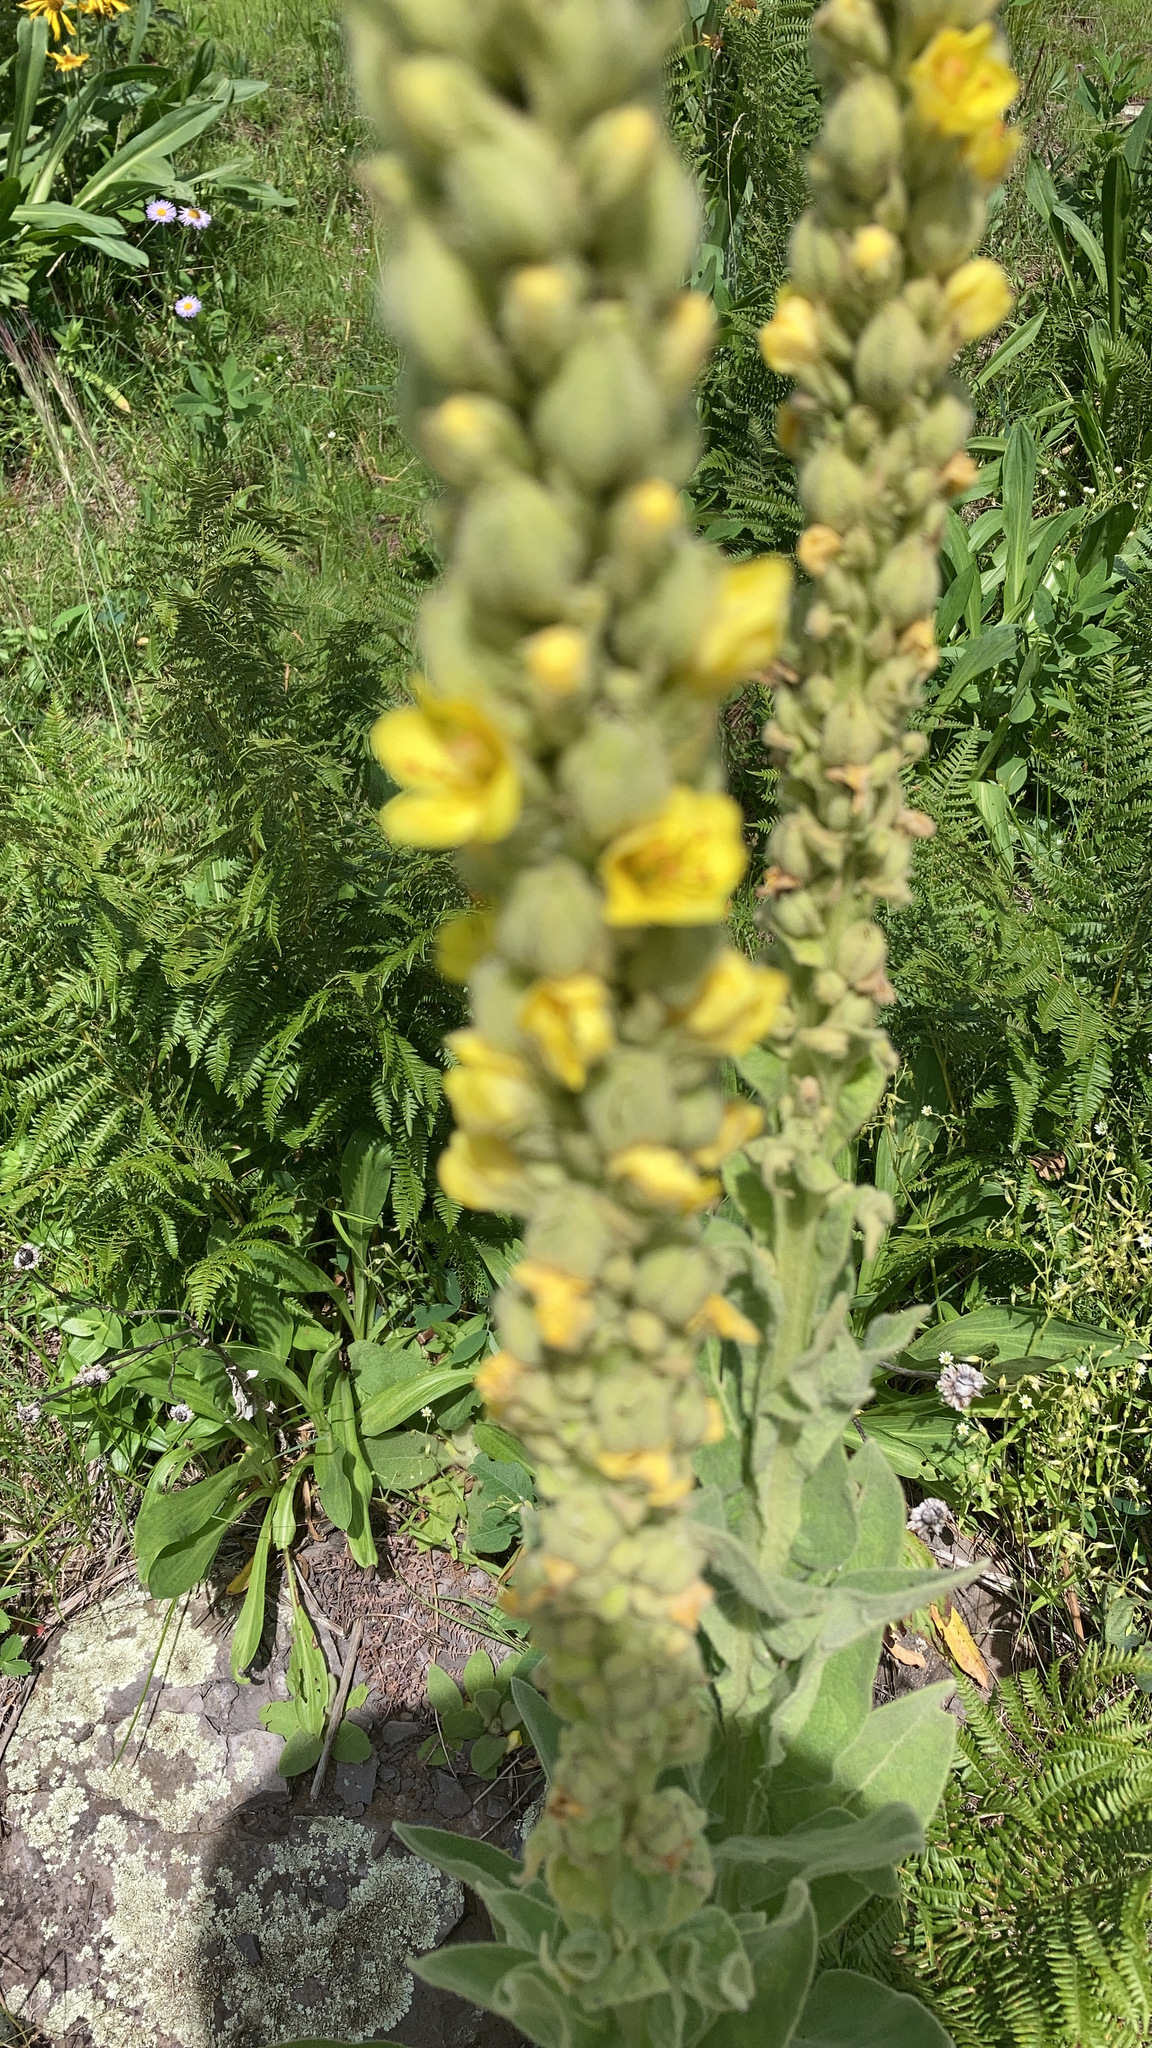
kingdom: Plantae
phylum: Tracheophyta
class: Magnoliopsida
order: Lamiales
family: Scrophulariaceae
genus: Verbascum
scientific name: Verbascum thapsus
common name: Common mullein
